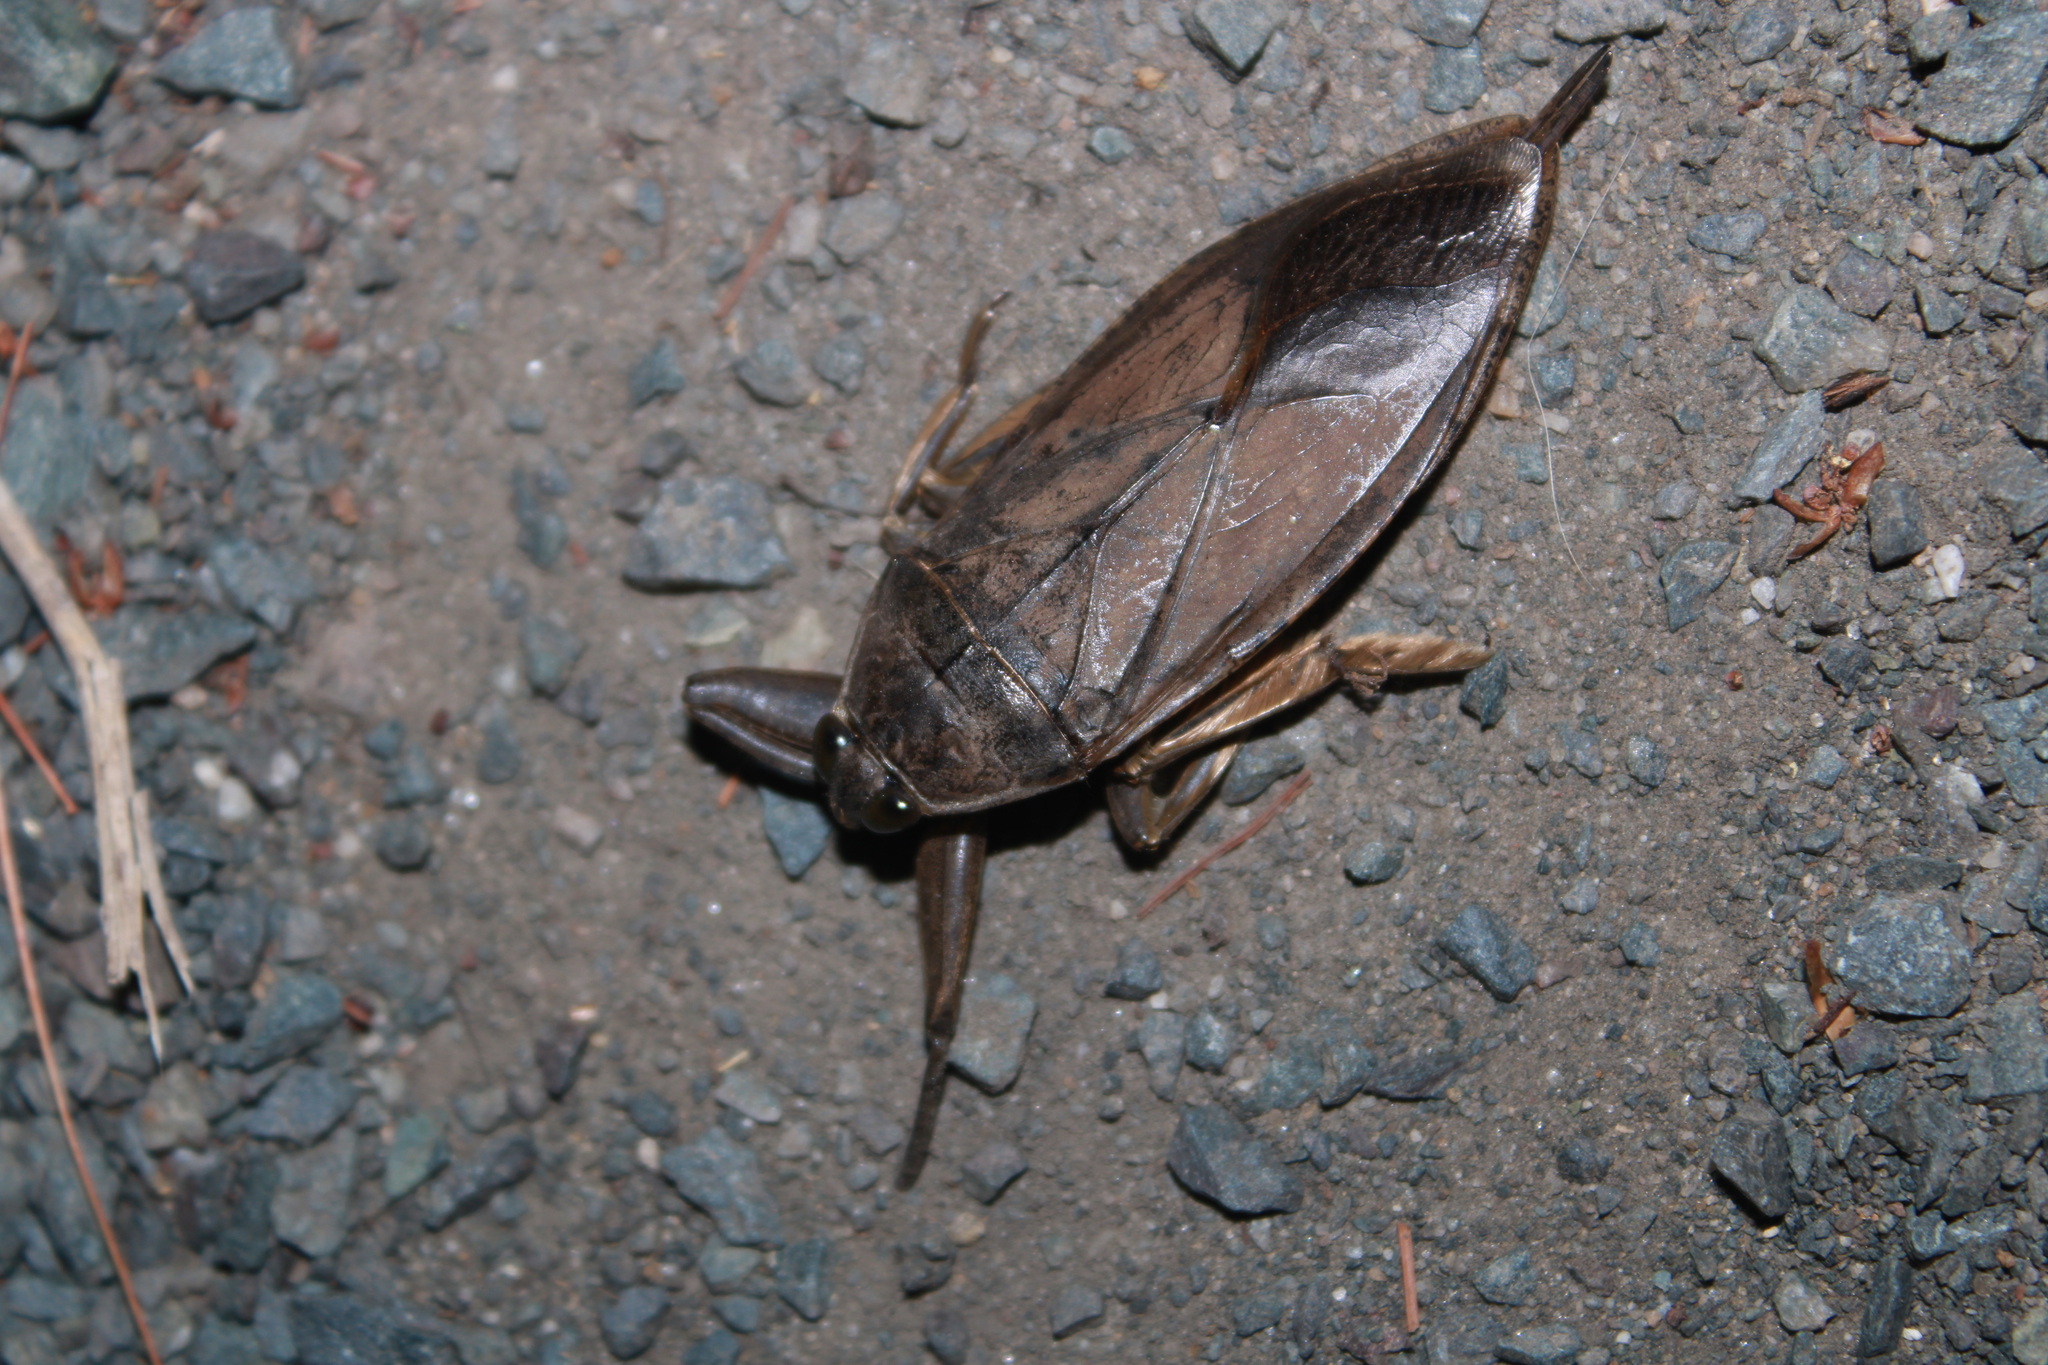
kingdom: Animalia
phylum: Arthropoda
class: Insecta
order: Hemiptera
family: Belostomatidae
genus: Lethocerus
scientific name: Lethocerus americanus
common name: Giant water bug
